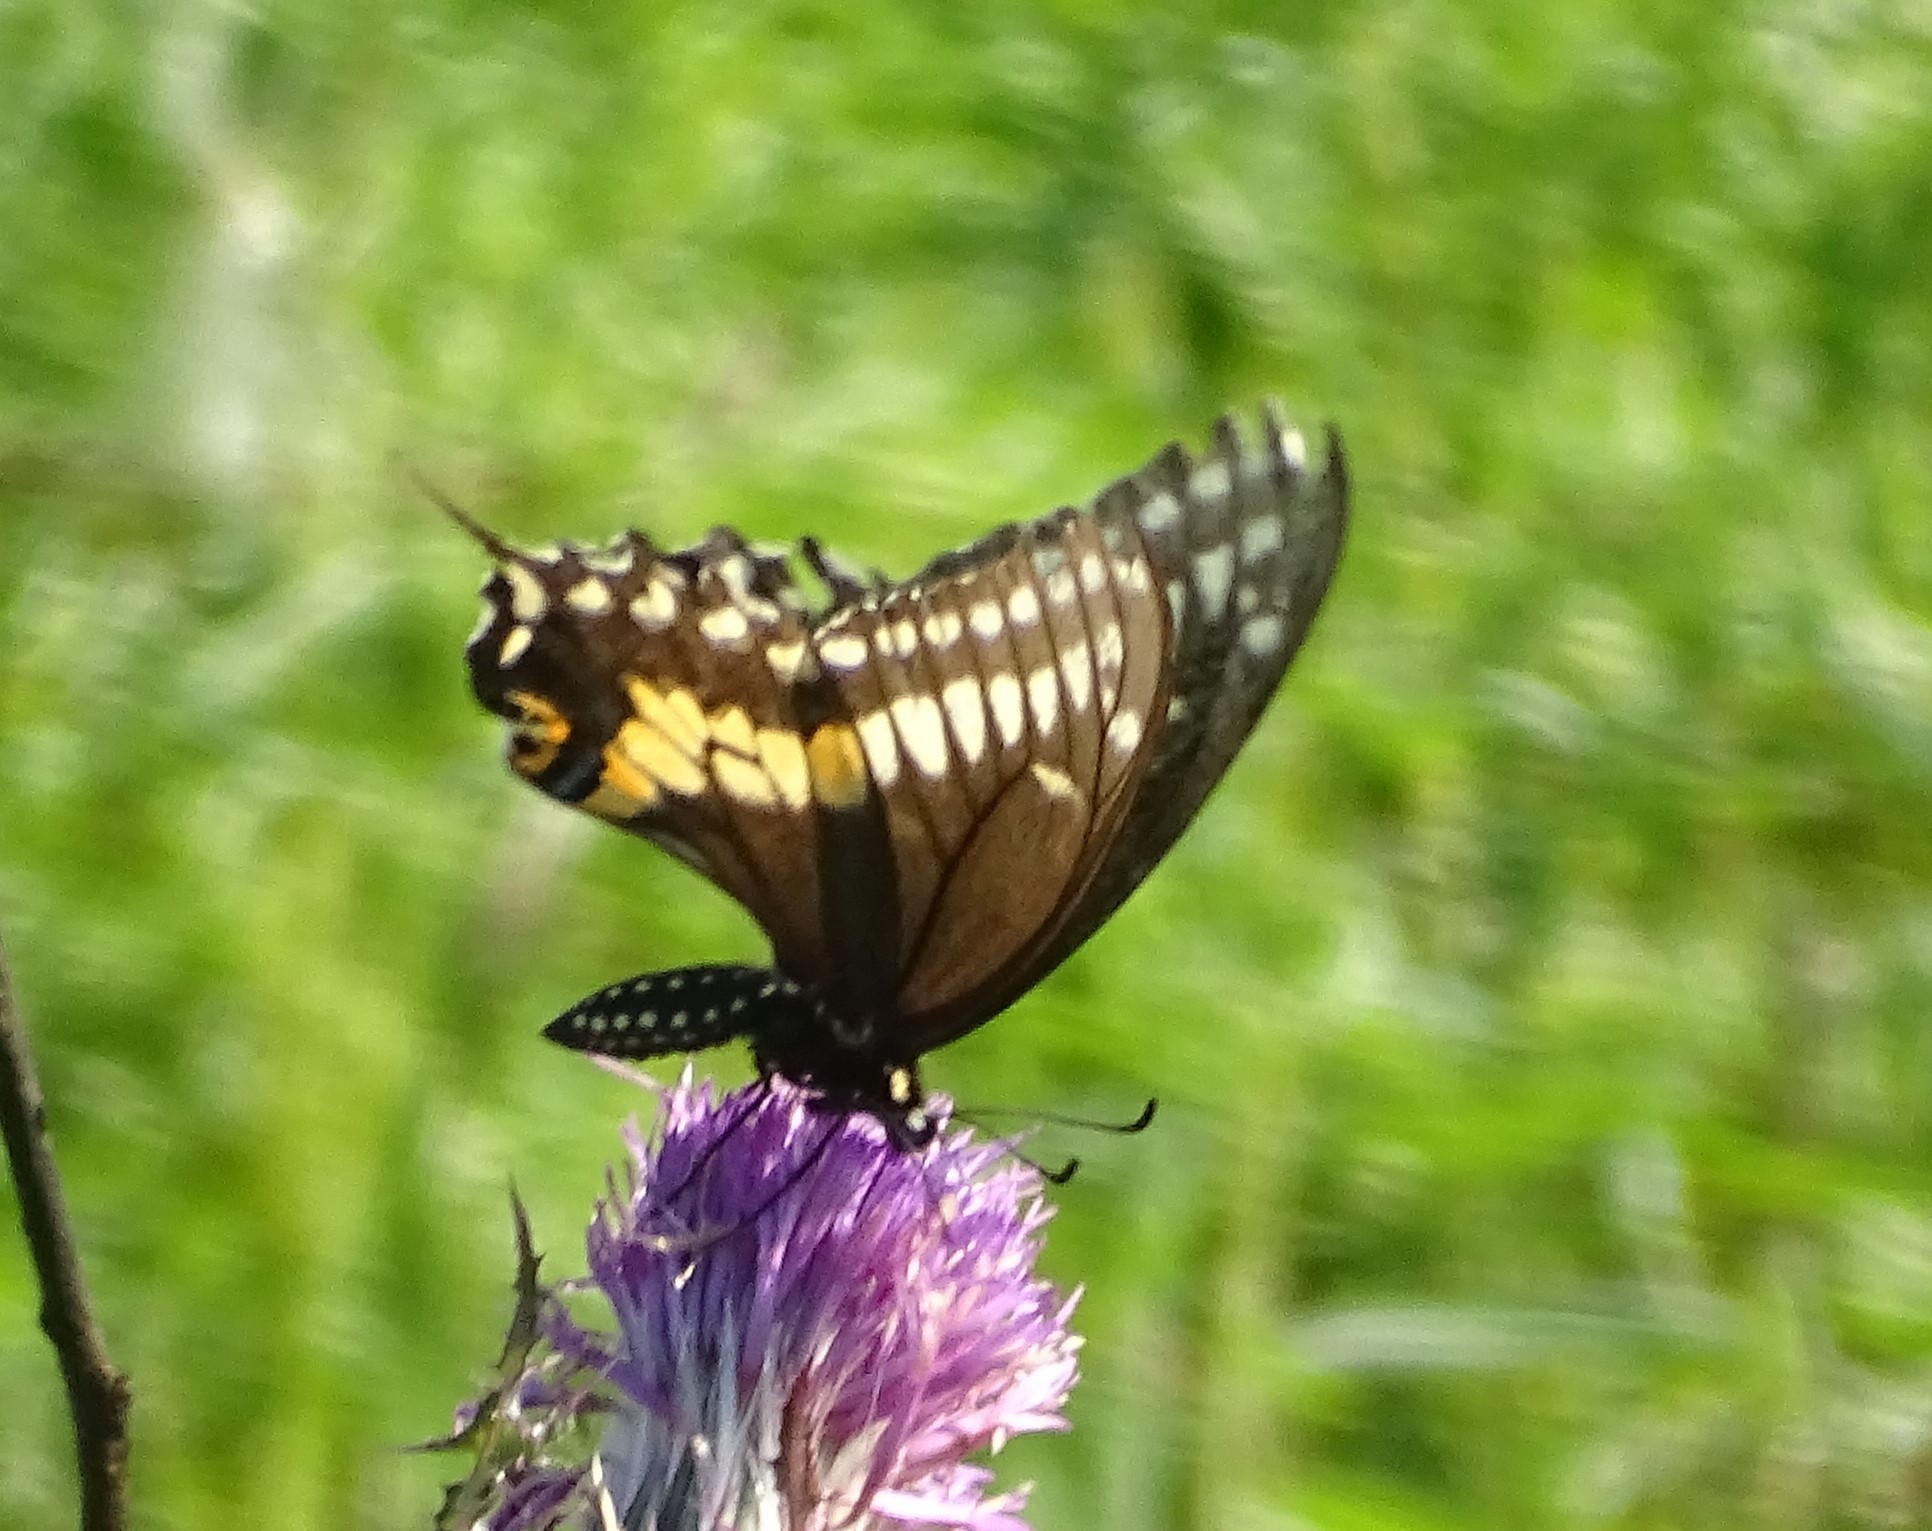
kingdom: Animalia
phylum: Arthropoda
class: Insecta
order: Lepidoptera
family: Papilionidae
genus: Papilio
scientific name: Papilio polyxenes
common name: Black swallowtail
